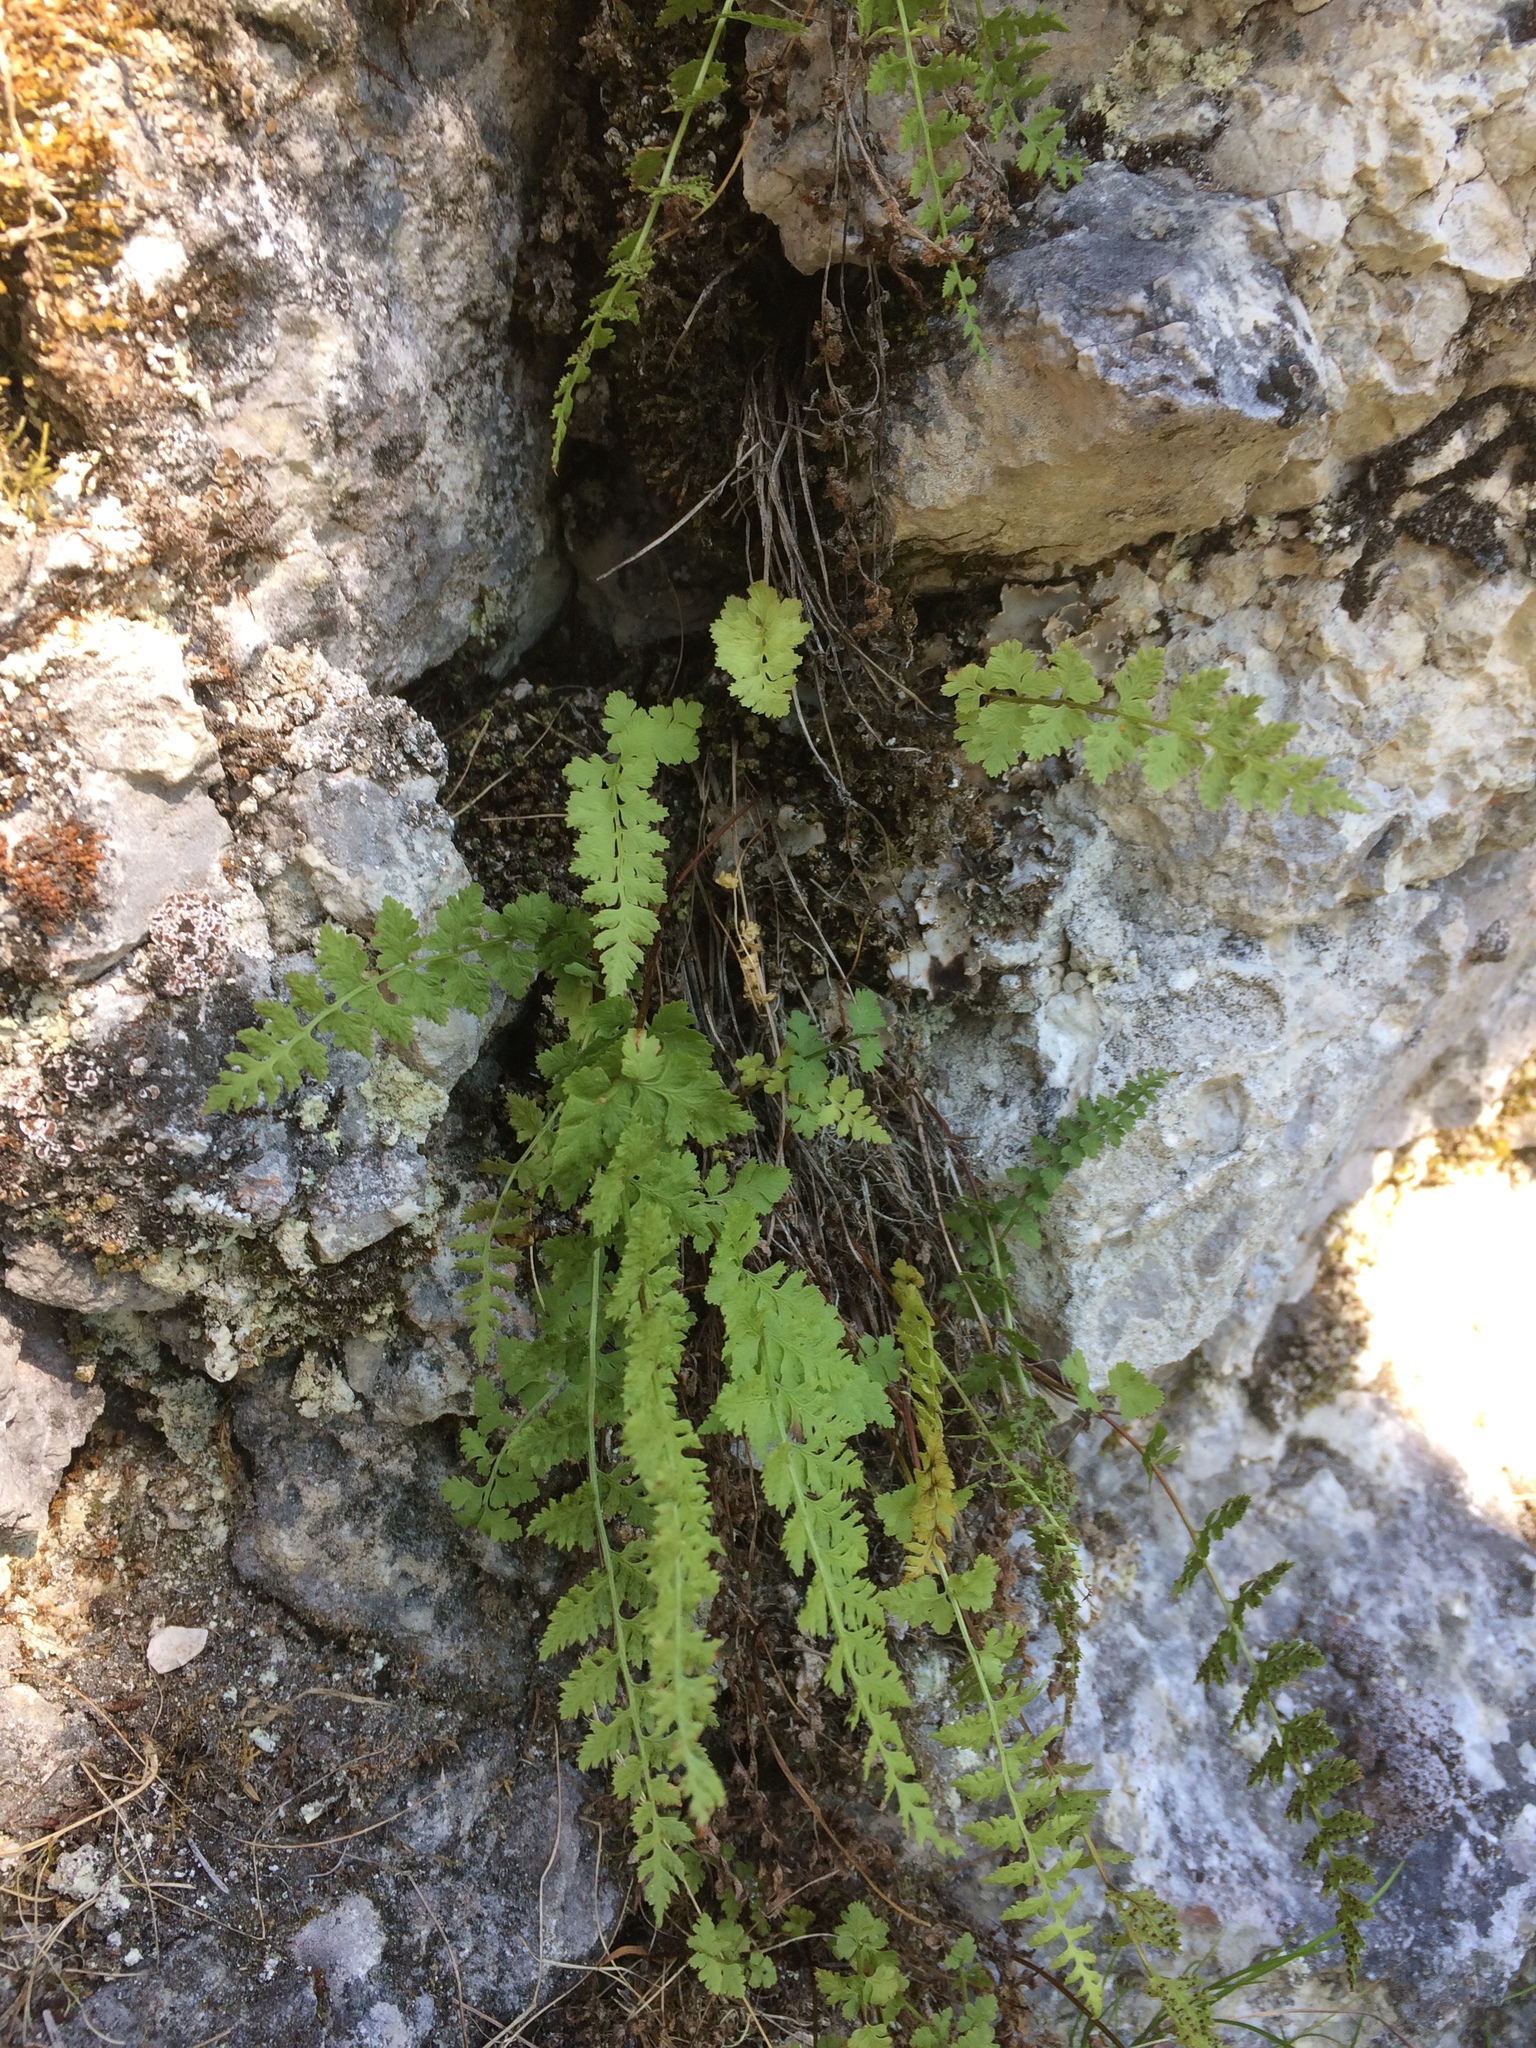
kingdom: Plantae
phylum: Tracheophyta
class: Polypodiopsida
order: Polypodiales
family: Cystopteridaceae
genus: Cystopteris
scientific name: Cystopteris fragilis
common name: Brittle bladder fern
